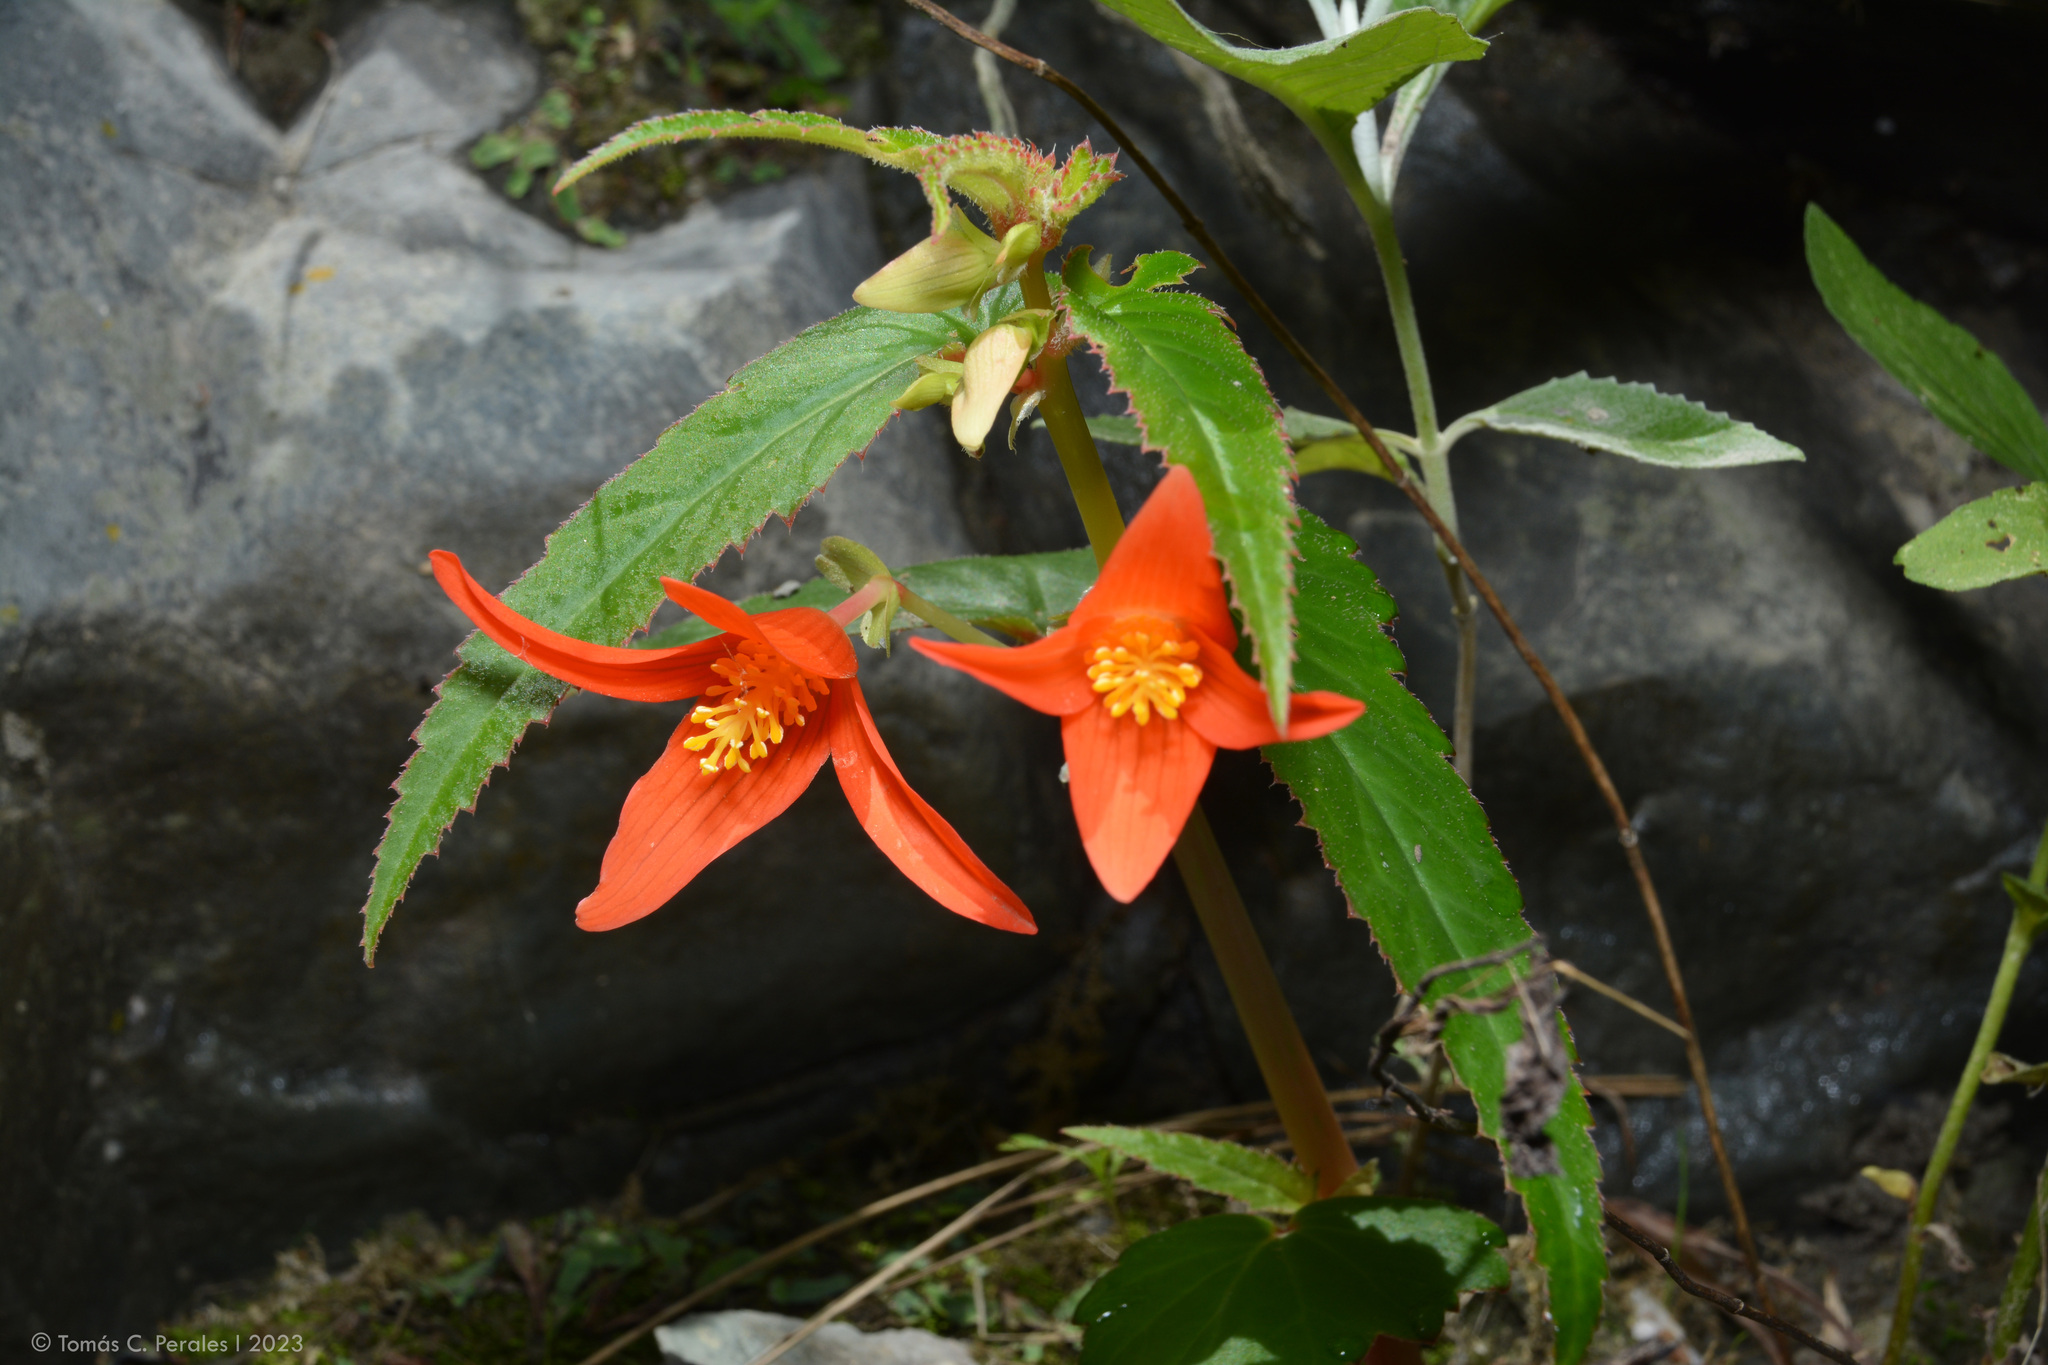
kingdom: Plantae
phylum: Tracheophyta
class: Magnoliopsida
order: Cucurbitales
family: Begoniaceae
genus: Begonia
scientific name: Begonia boliviensis
